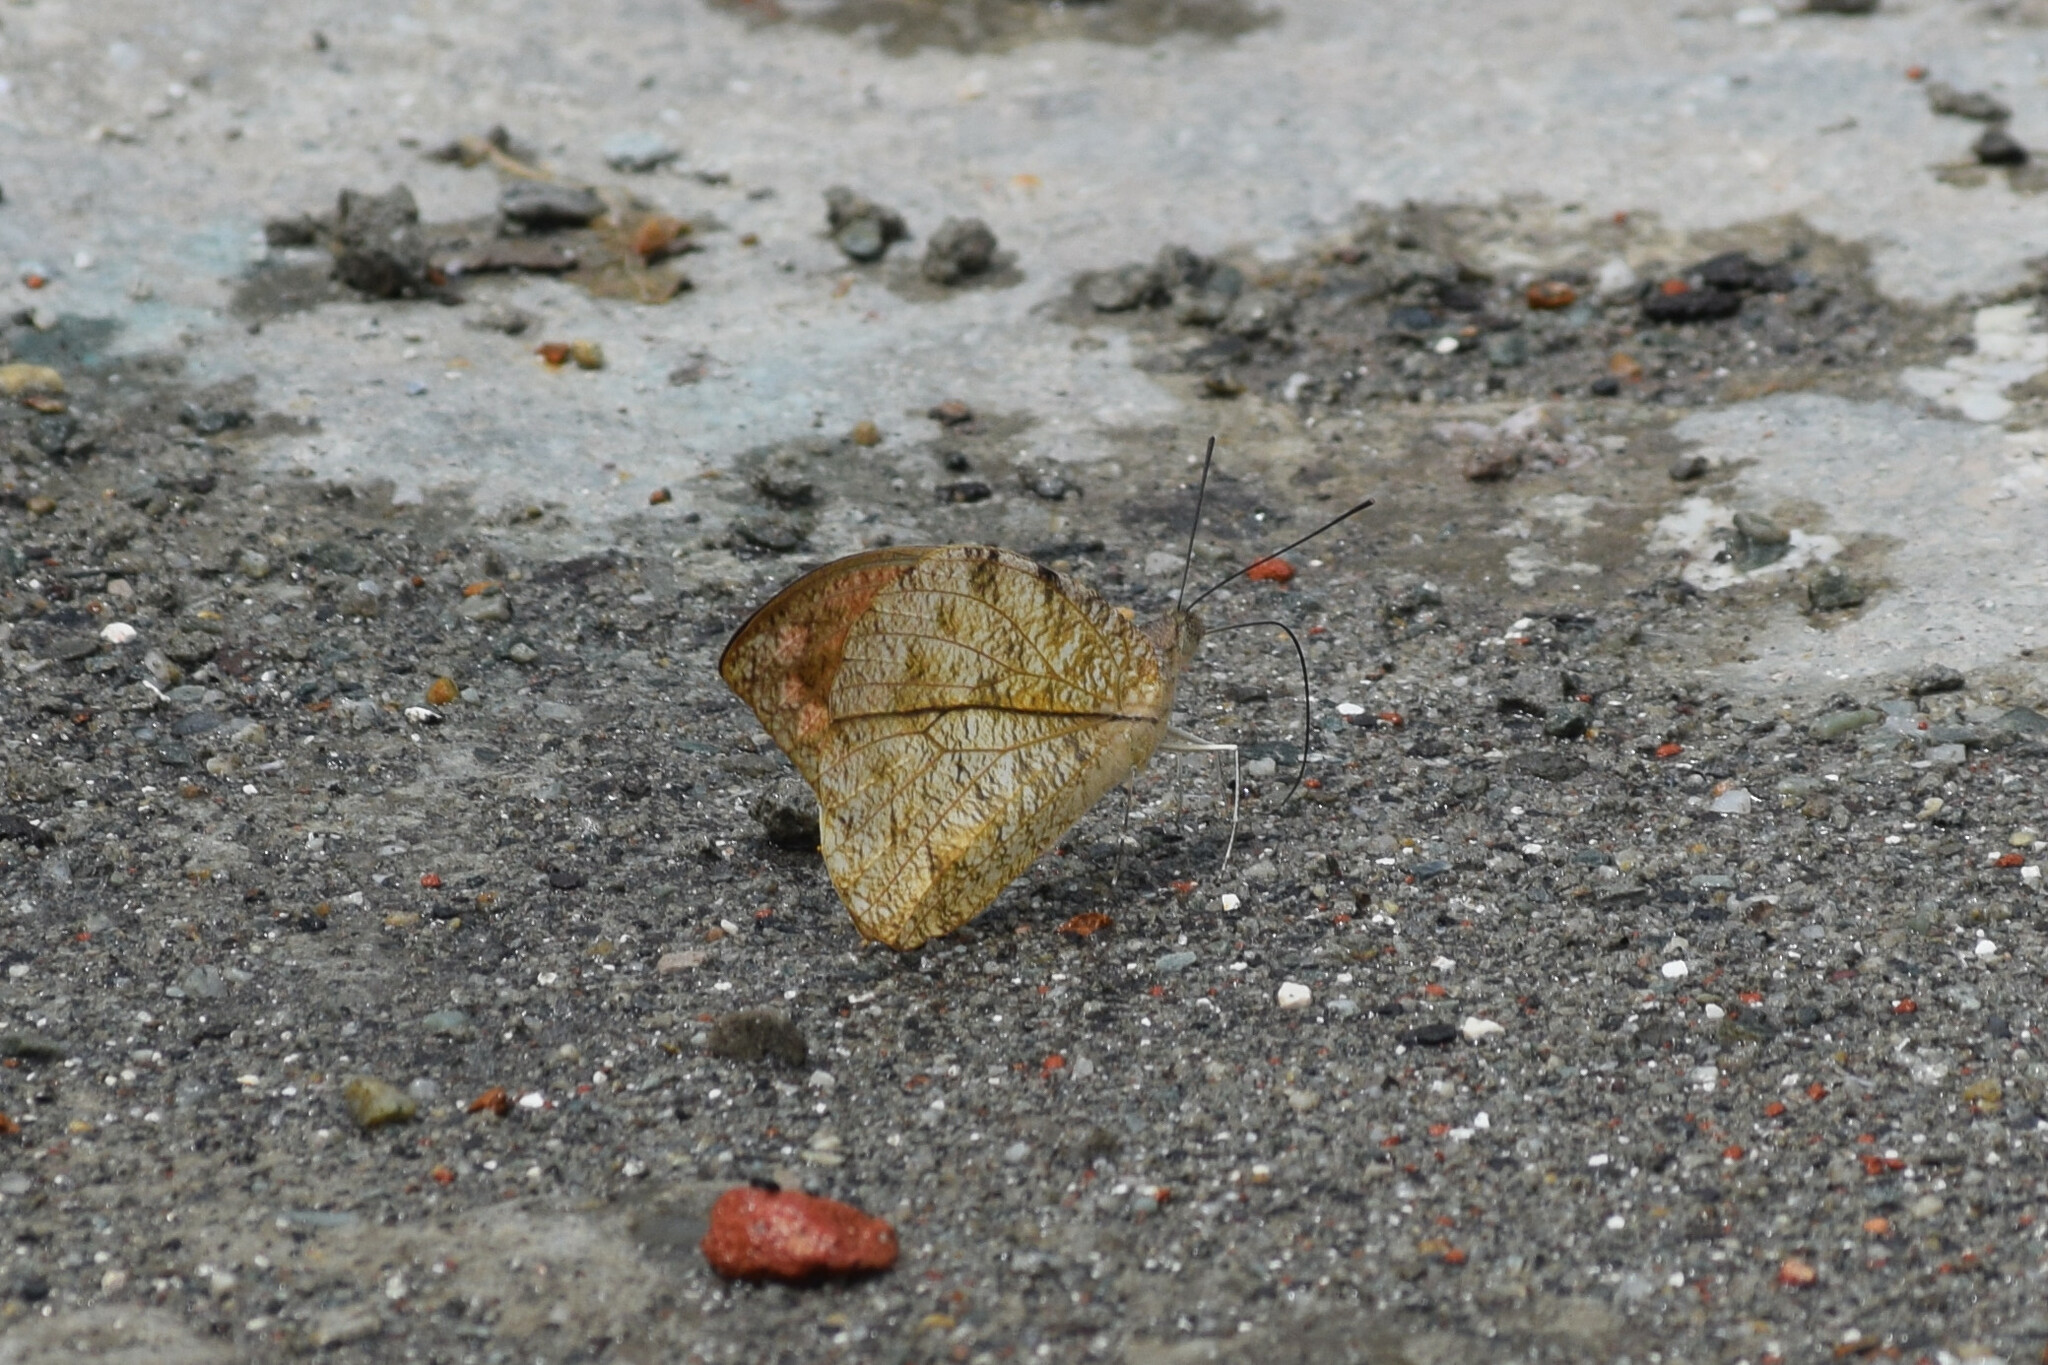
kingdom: Animalia
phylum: Arthropoda
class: Insecta
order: Lepidoptera
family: Pieridae
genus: Hebomoia
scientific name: Hebomoia glaucippe
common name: Great orange tip
